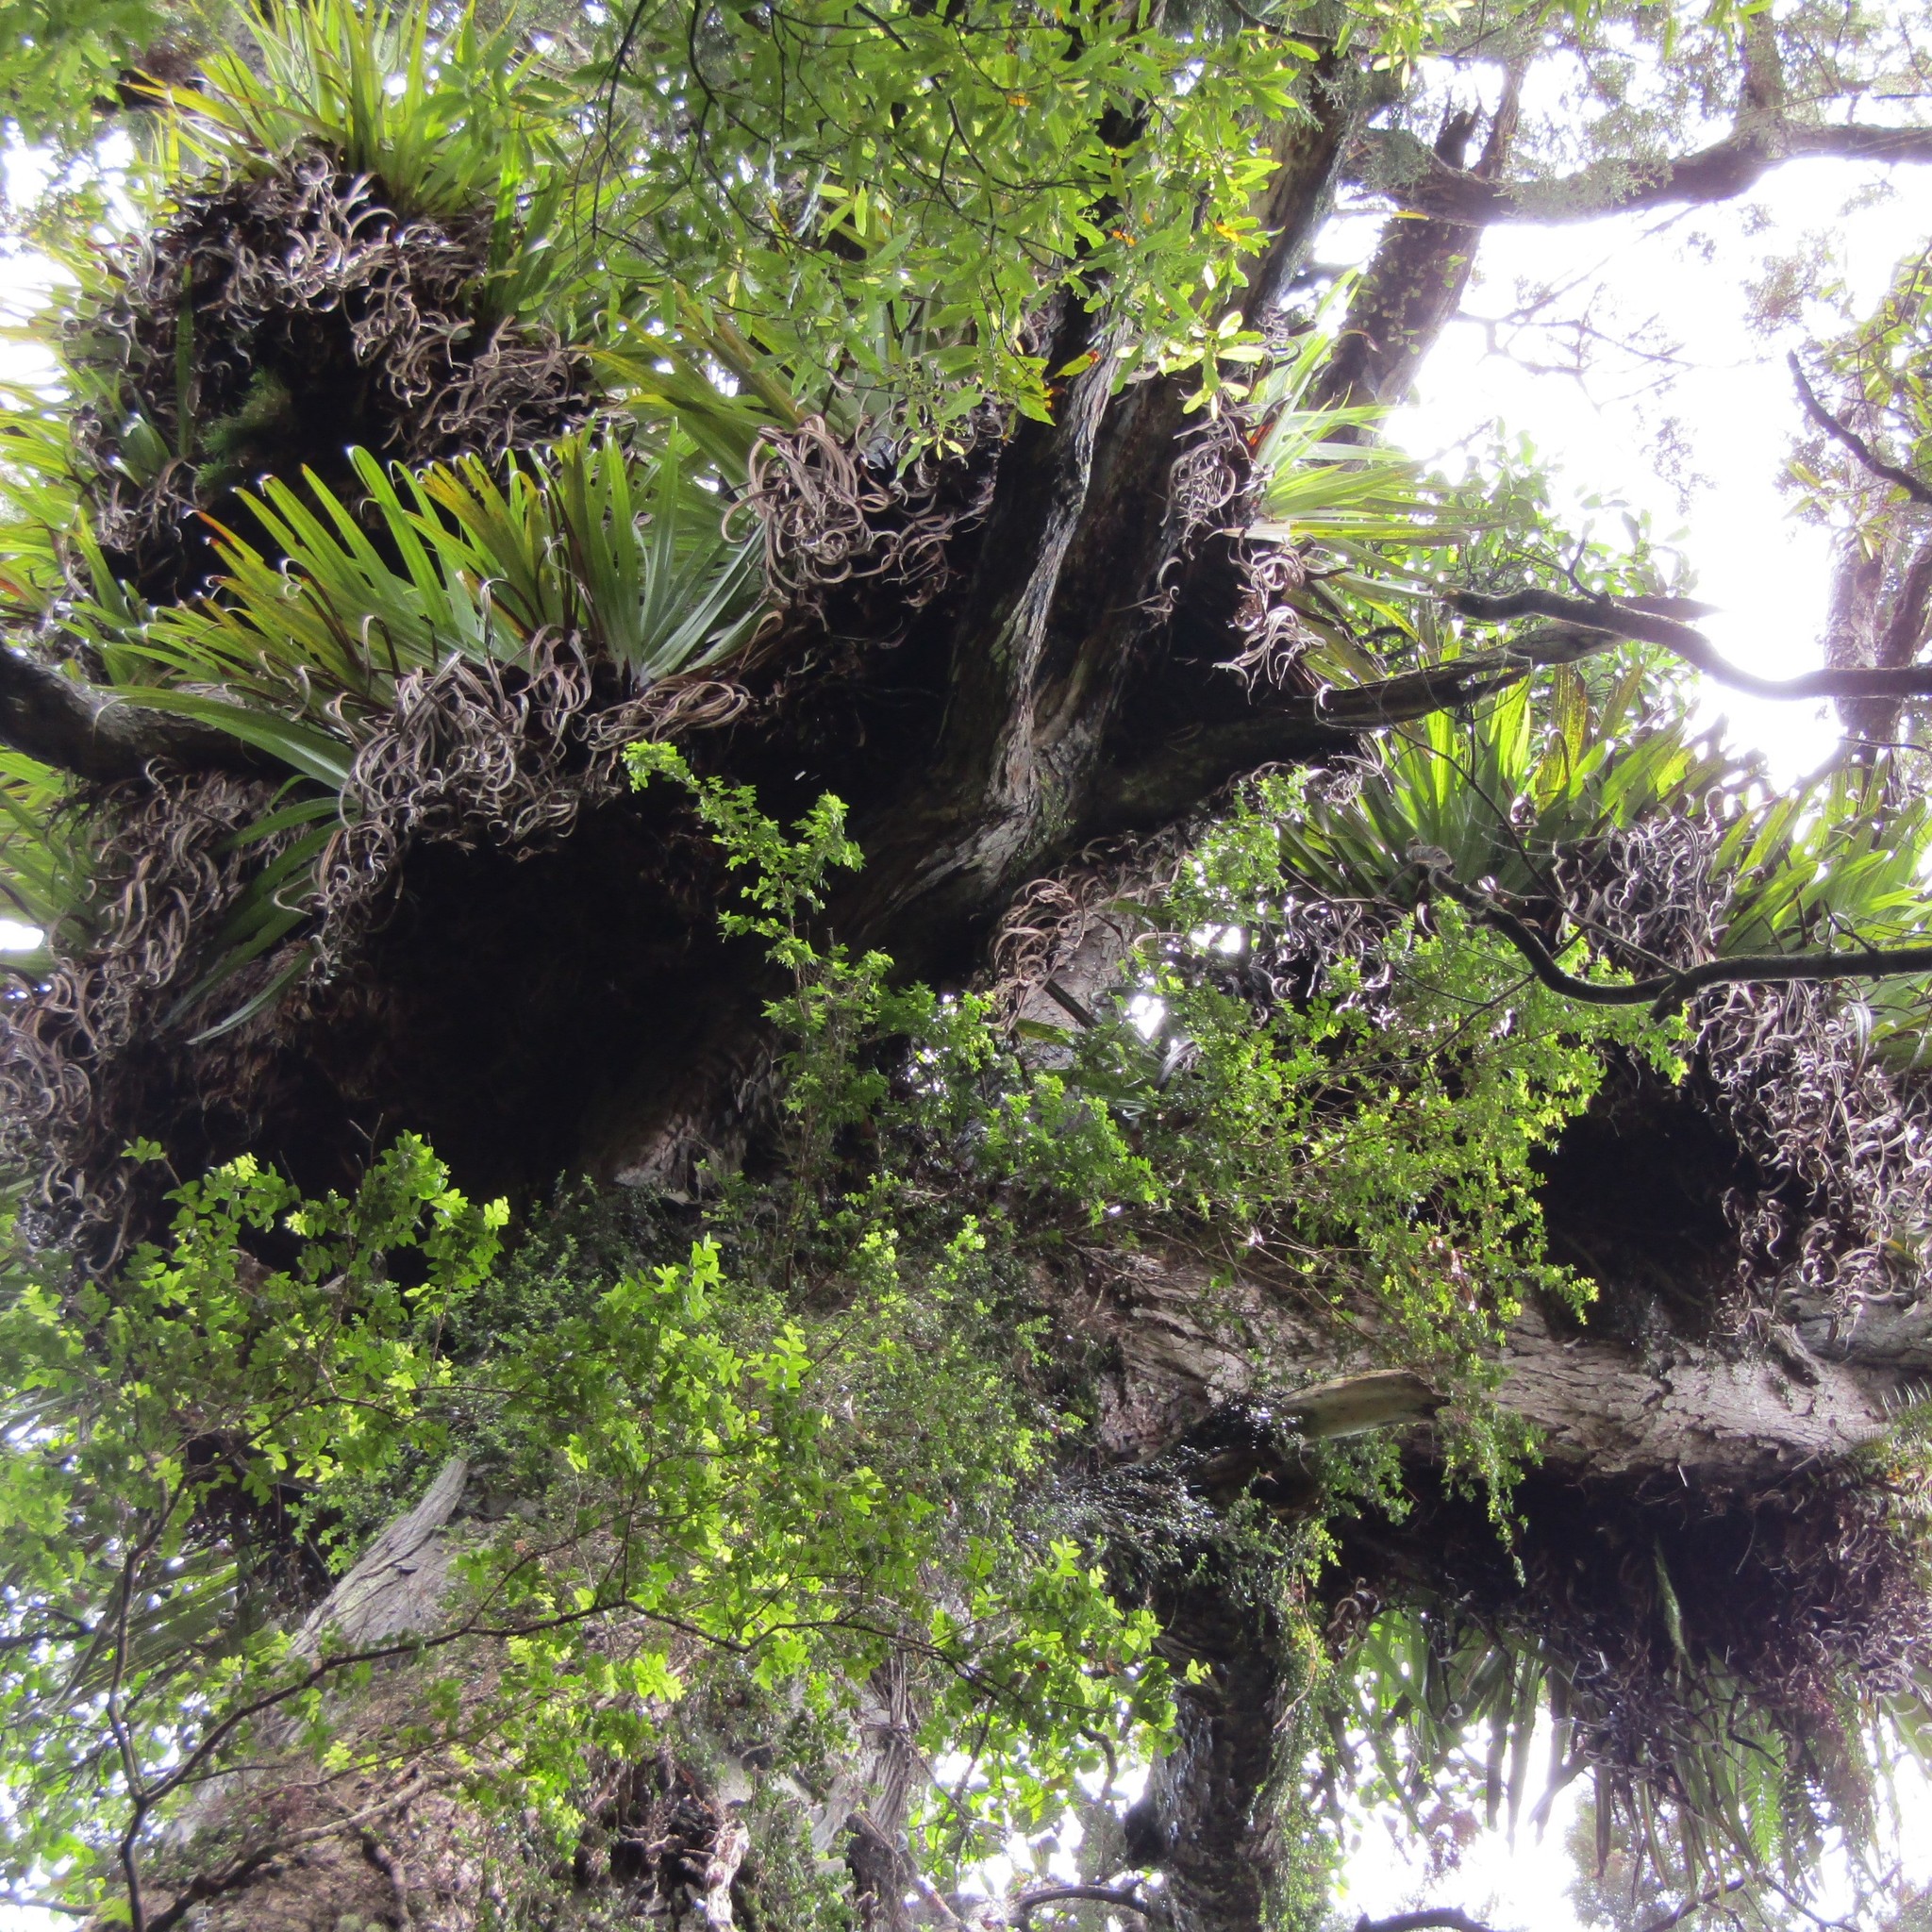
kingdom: Plantae
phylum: Tracheophyta
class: Liliopsida
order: Asparagales
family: Asteliaceae
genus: Astelia
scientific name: Astelia hastata
